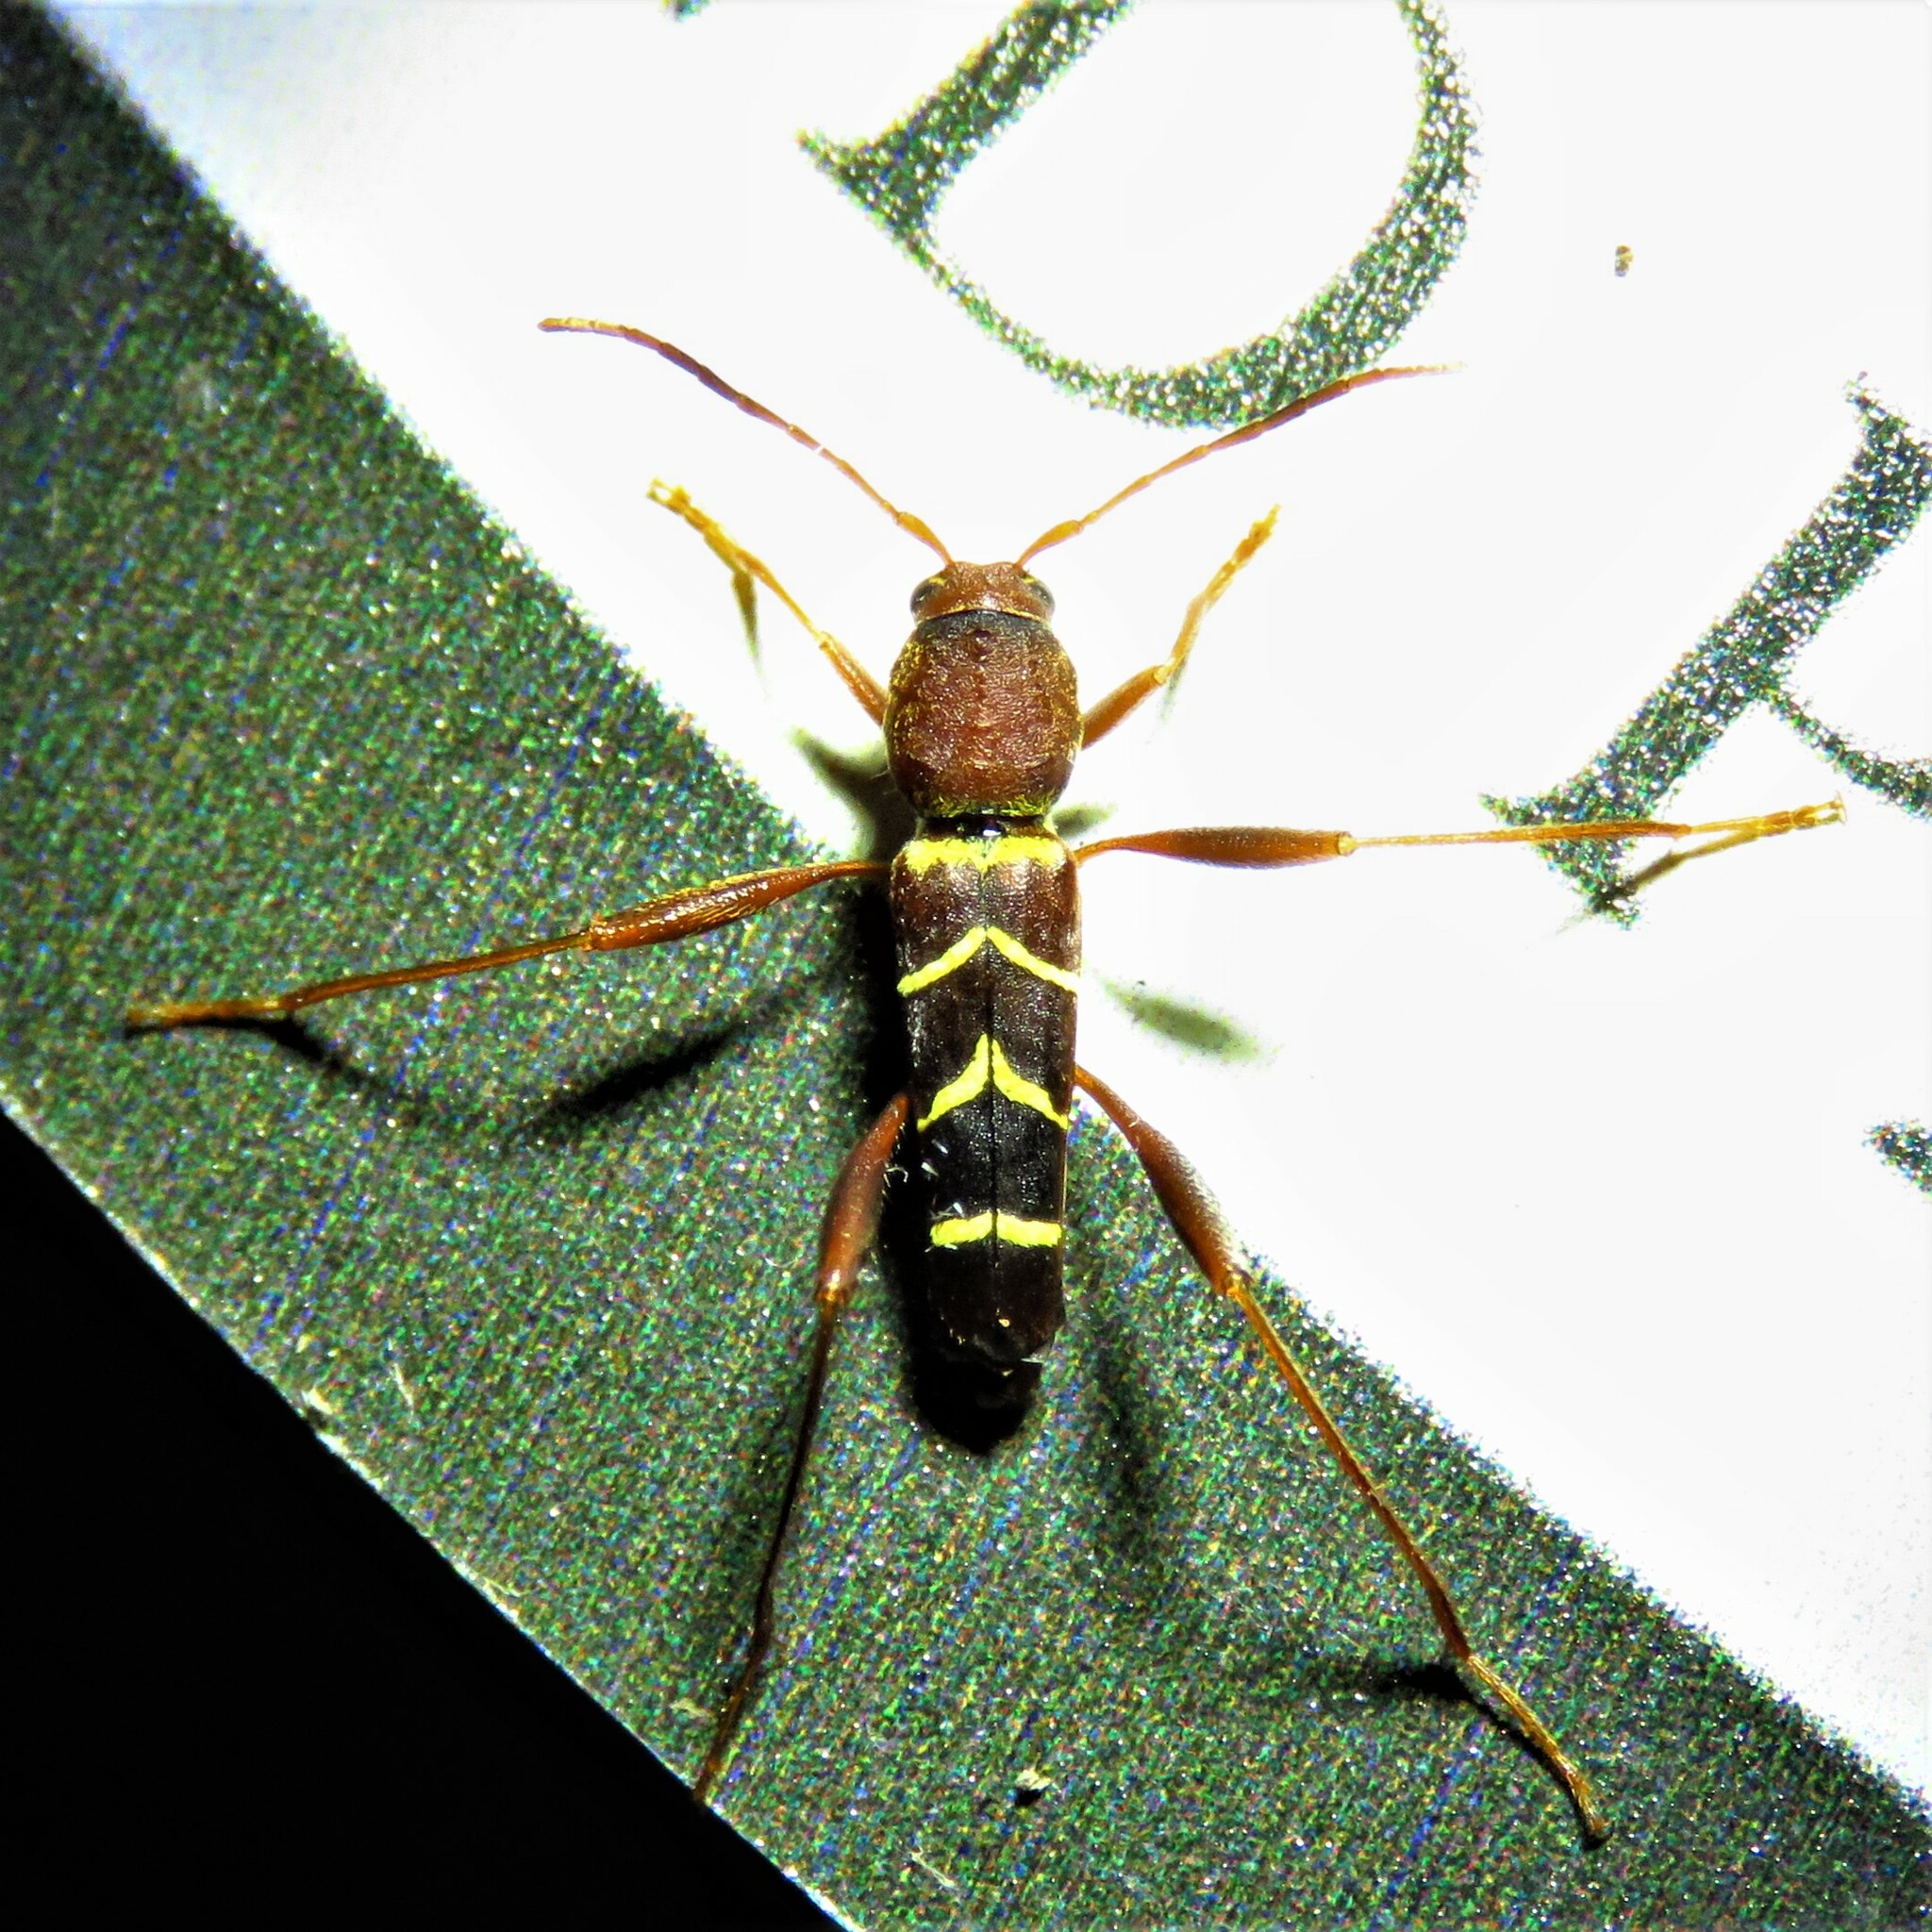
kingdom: Animalia
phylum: Arthropoda
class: Insecta
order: Coleoptera
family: Cerambycidae
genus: Neoclytus
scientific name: Neoclytus acuminatus
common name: Read-headed ash borer
